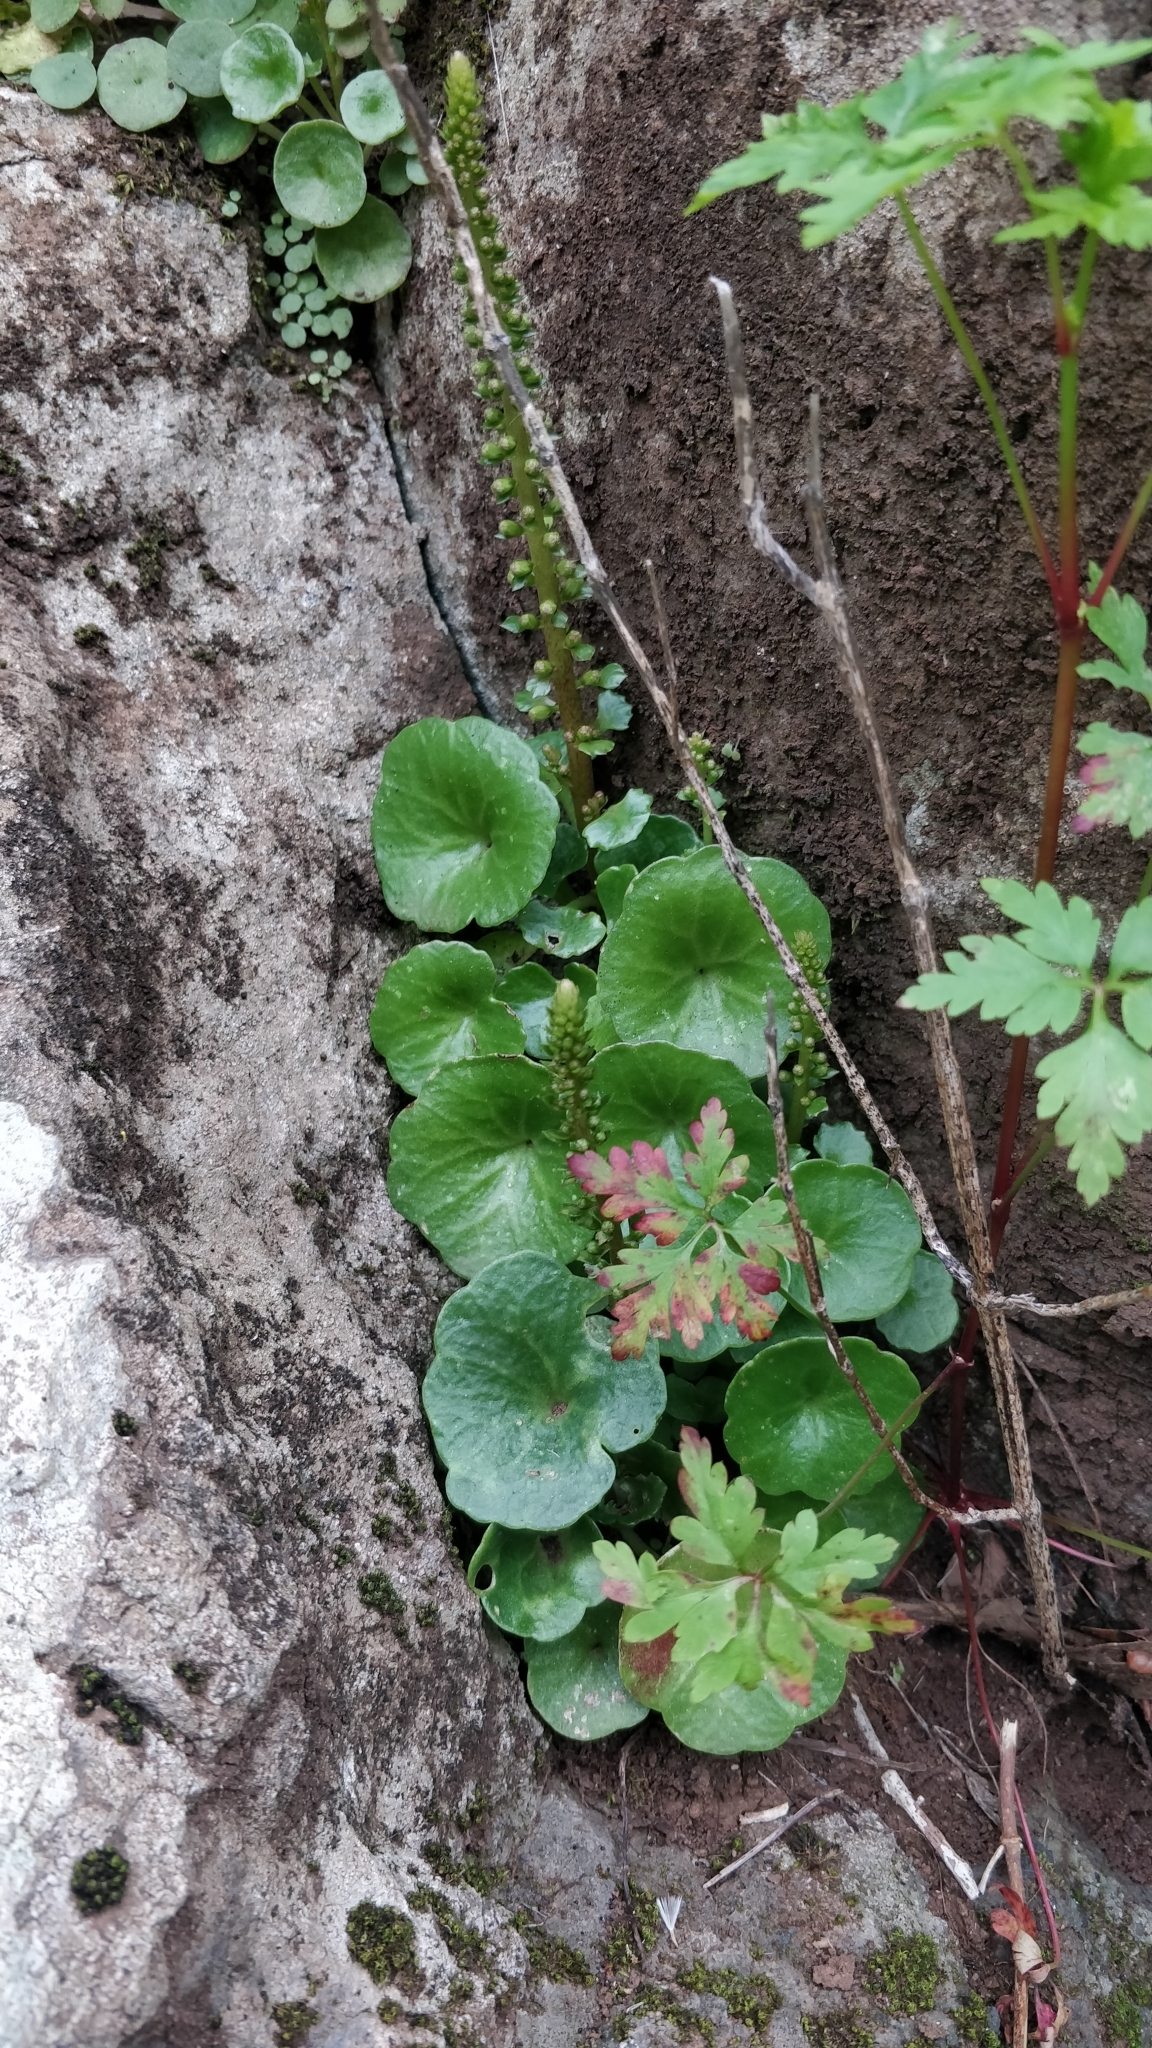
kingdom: Plantae
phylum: Tracheophyta
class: Magnoliopsida
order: Saxifragales
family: Crassulaceae
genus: Umbilicus
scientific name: Umbilicus rupestris
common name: Navelwort
